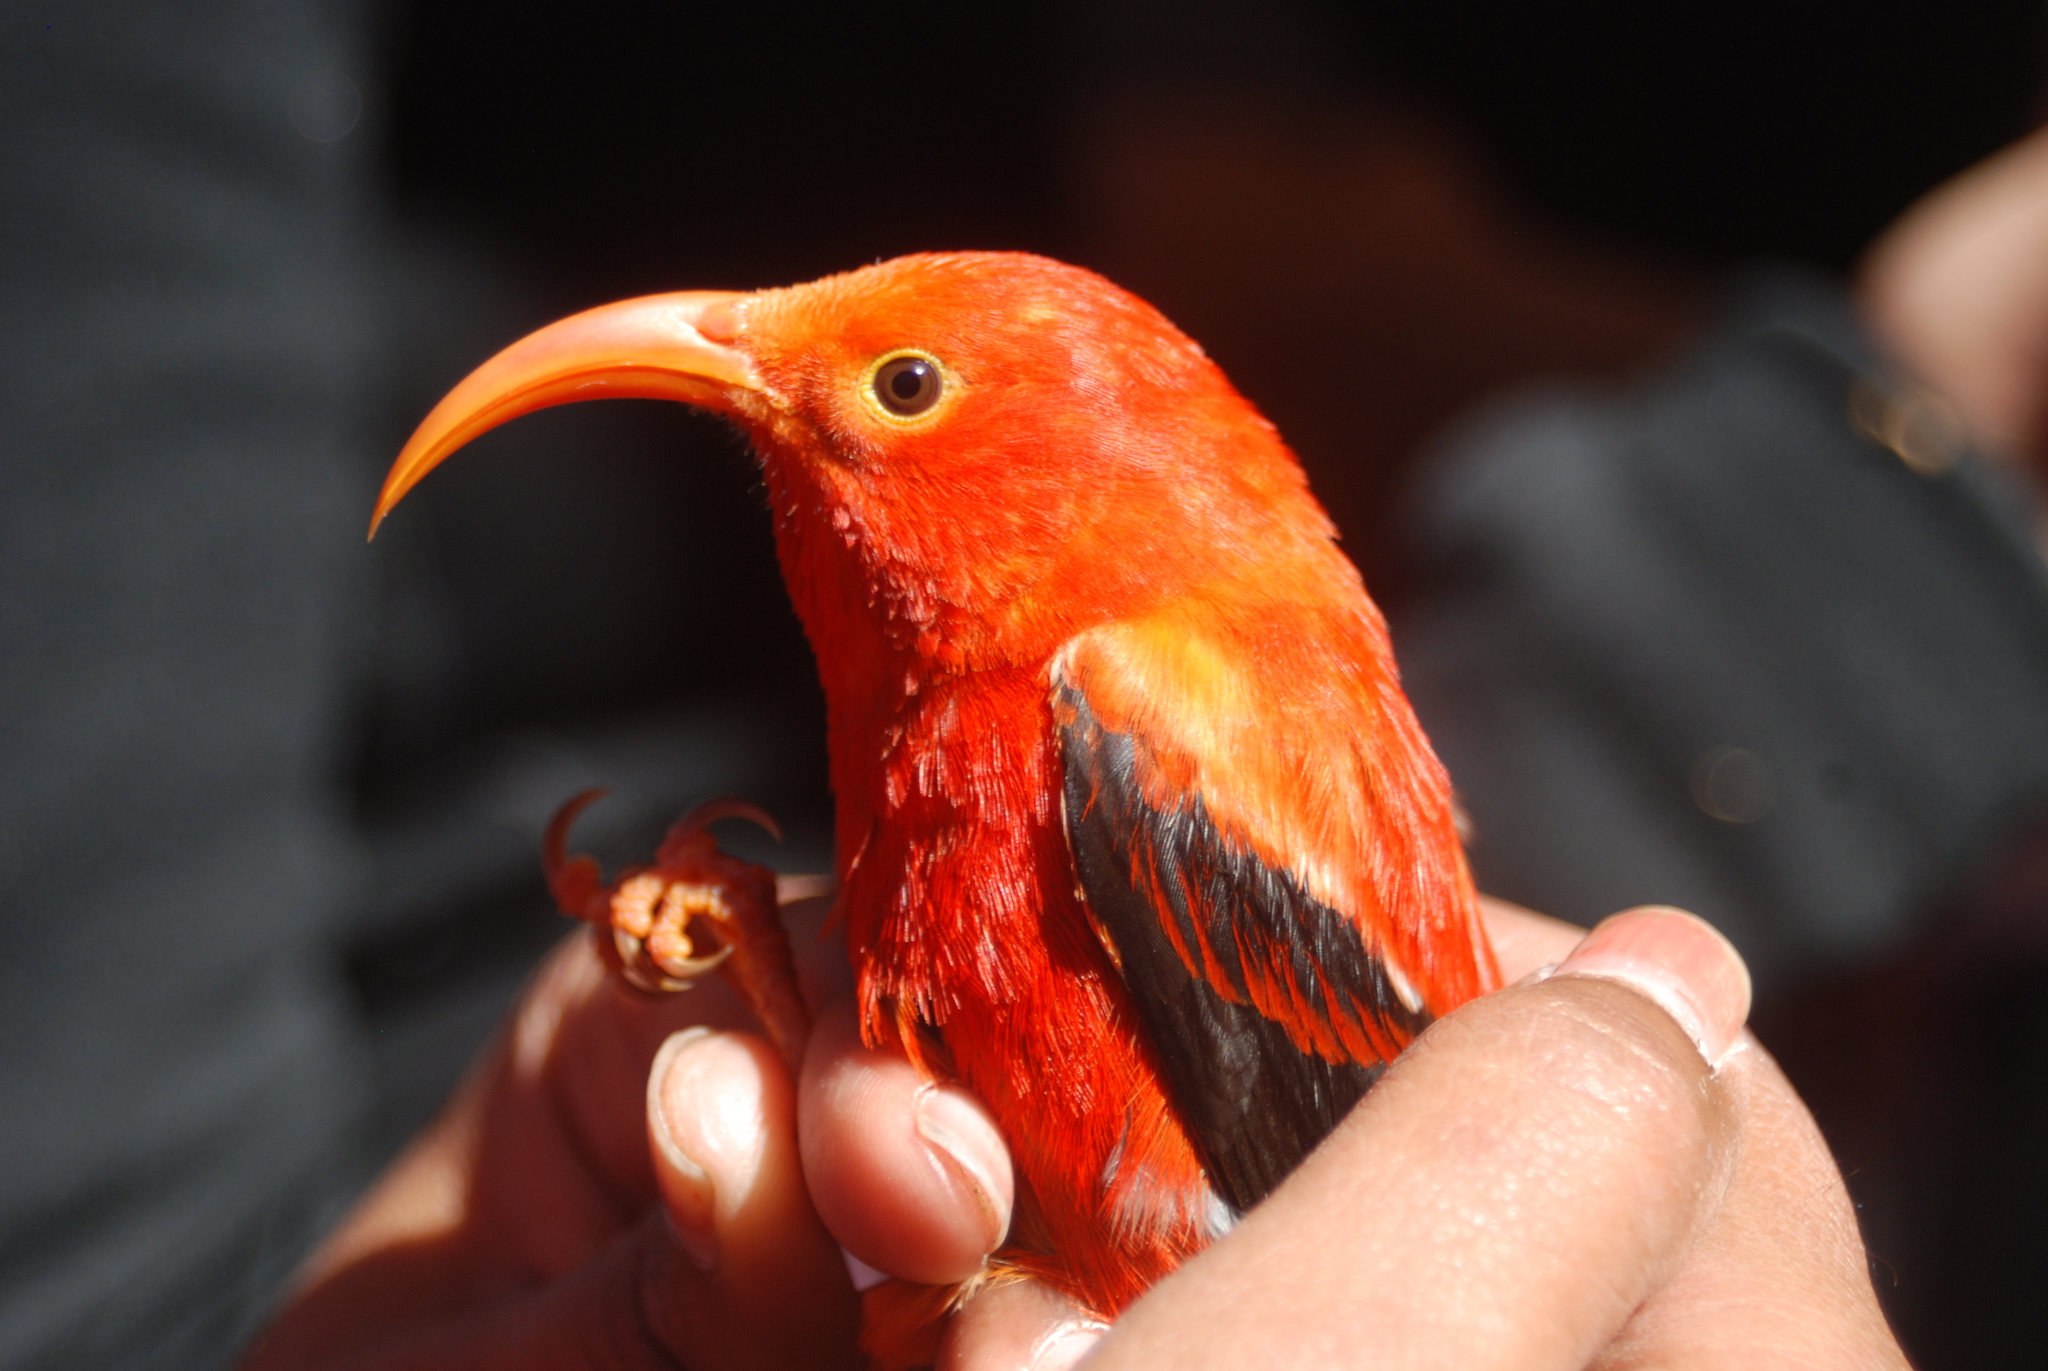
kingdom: Animalia
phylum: Chordata
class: Aves
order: Passeriformes
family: Fringillidae
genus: Vestiaria
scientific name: Vestiaria coccinea
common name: Iiwi
